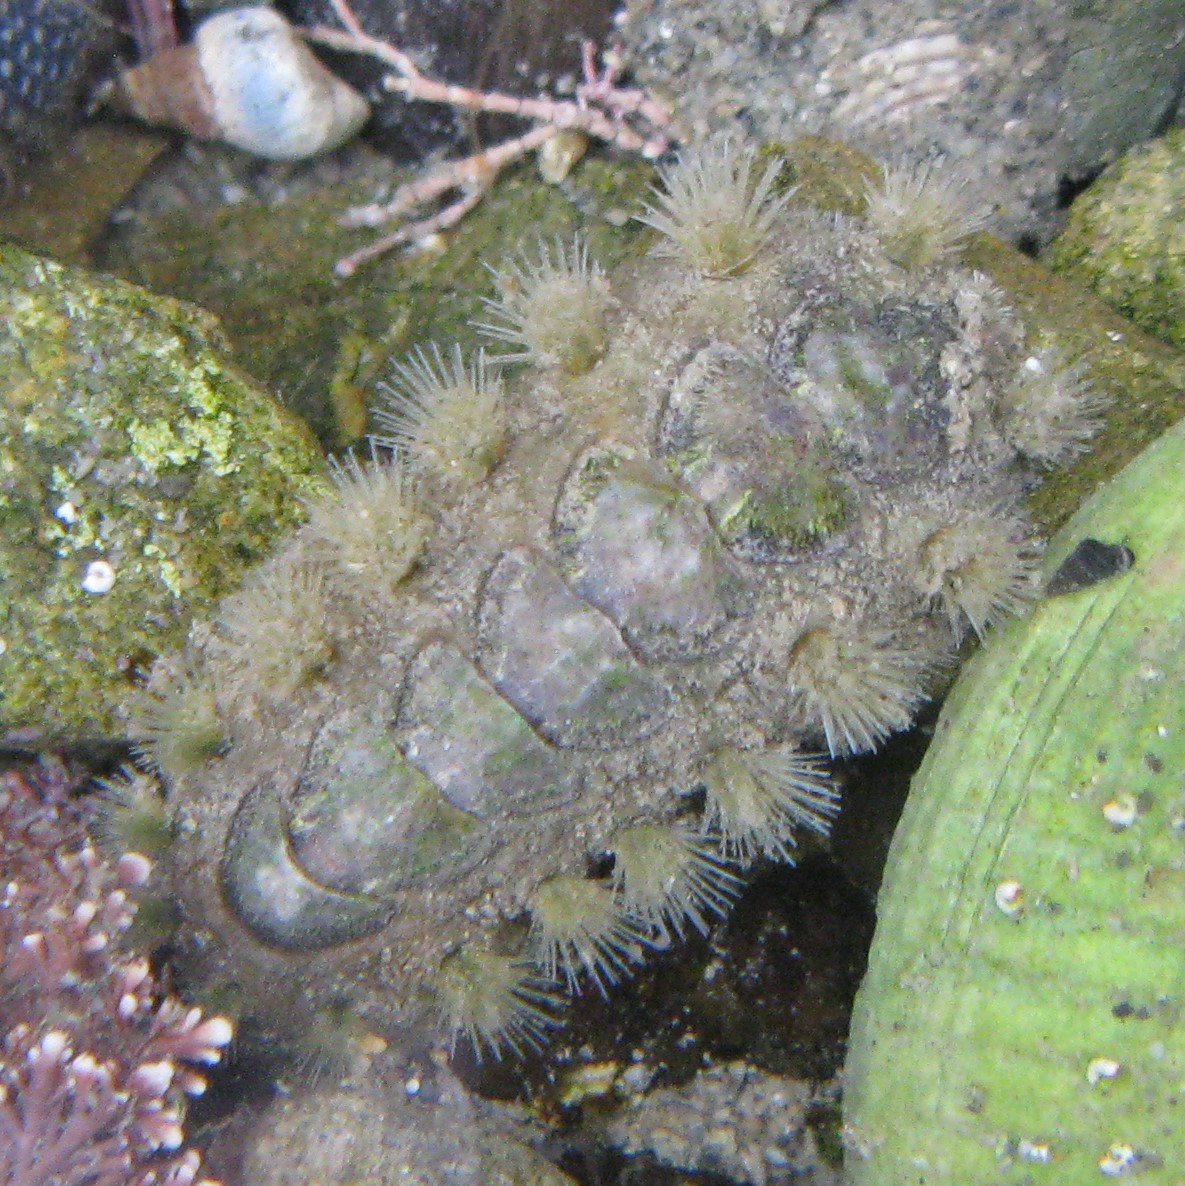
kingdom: Animalia
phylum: Mollusca
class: Polyplacophora
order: Chitonida
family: Acanthochitonidae
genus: Acanthochitona
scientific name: Acanthochitona zelandica
